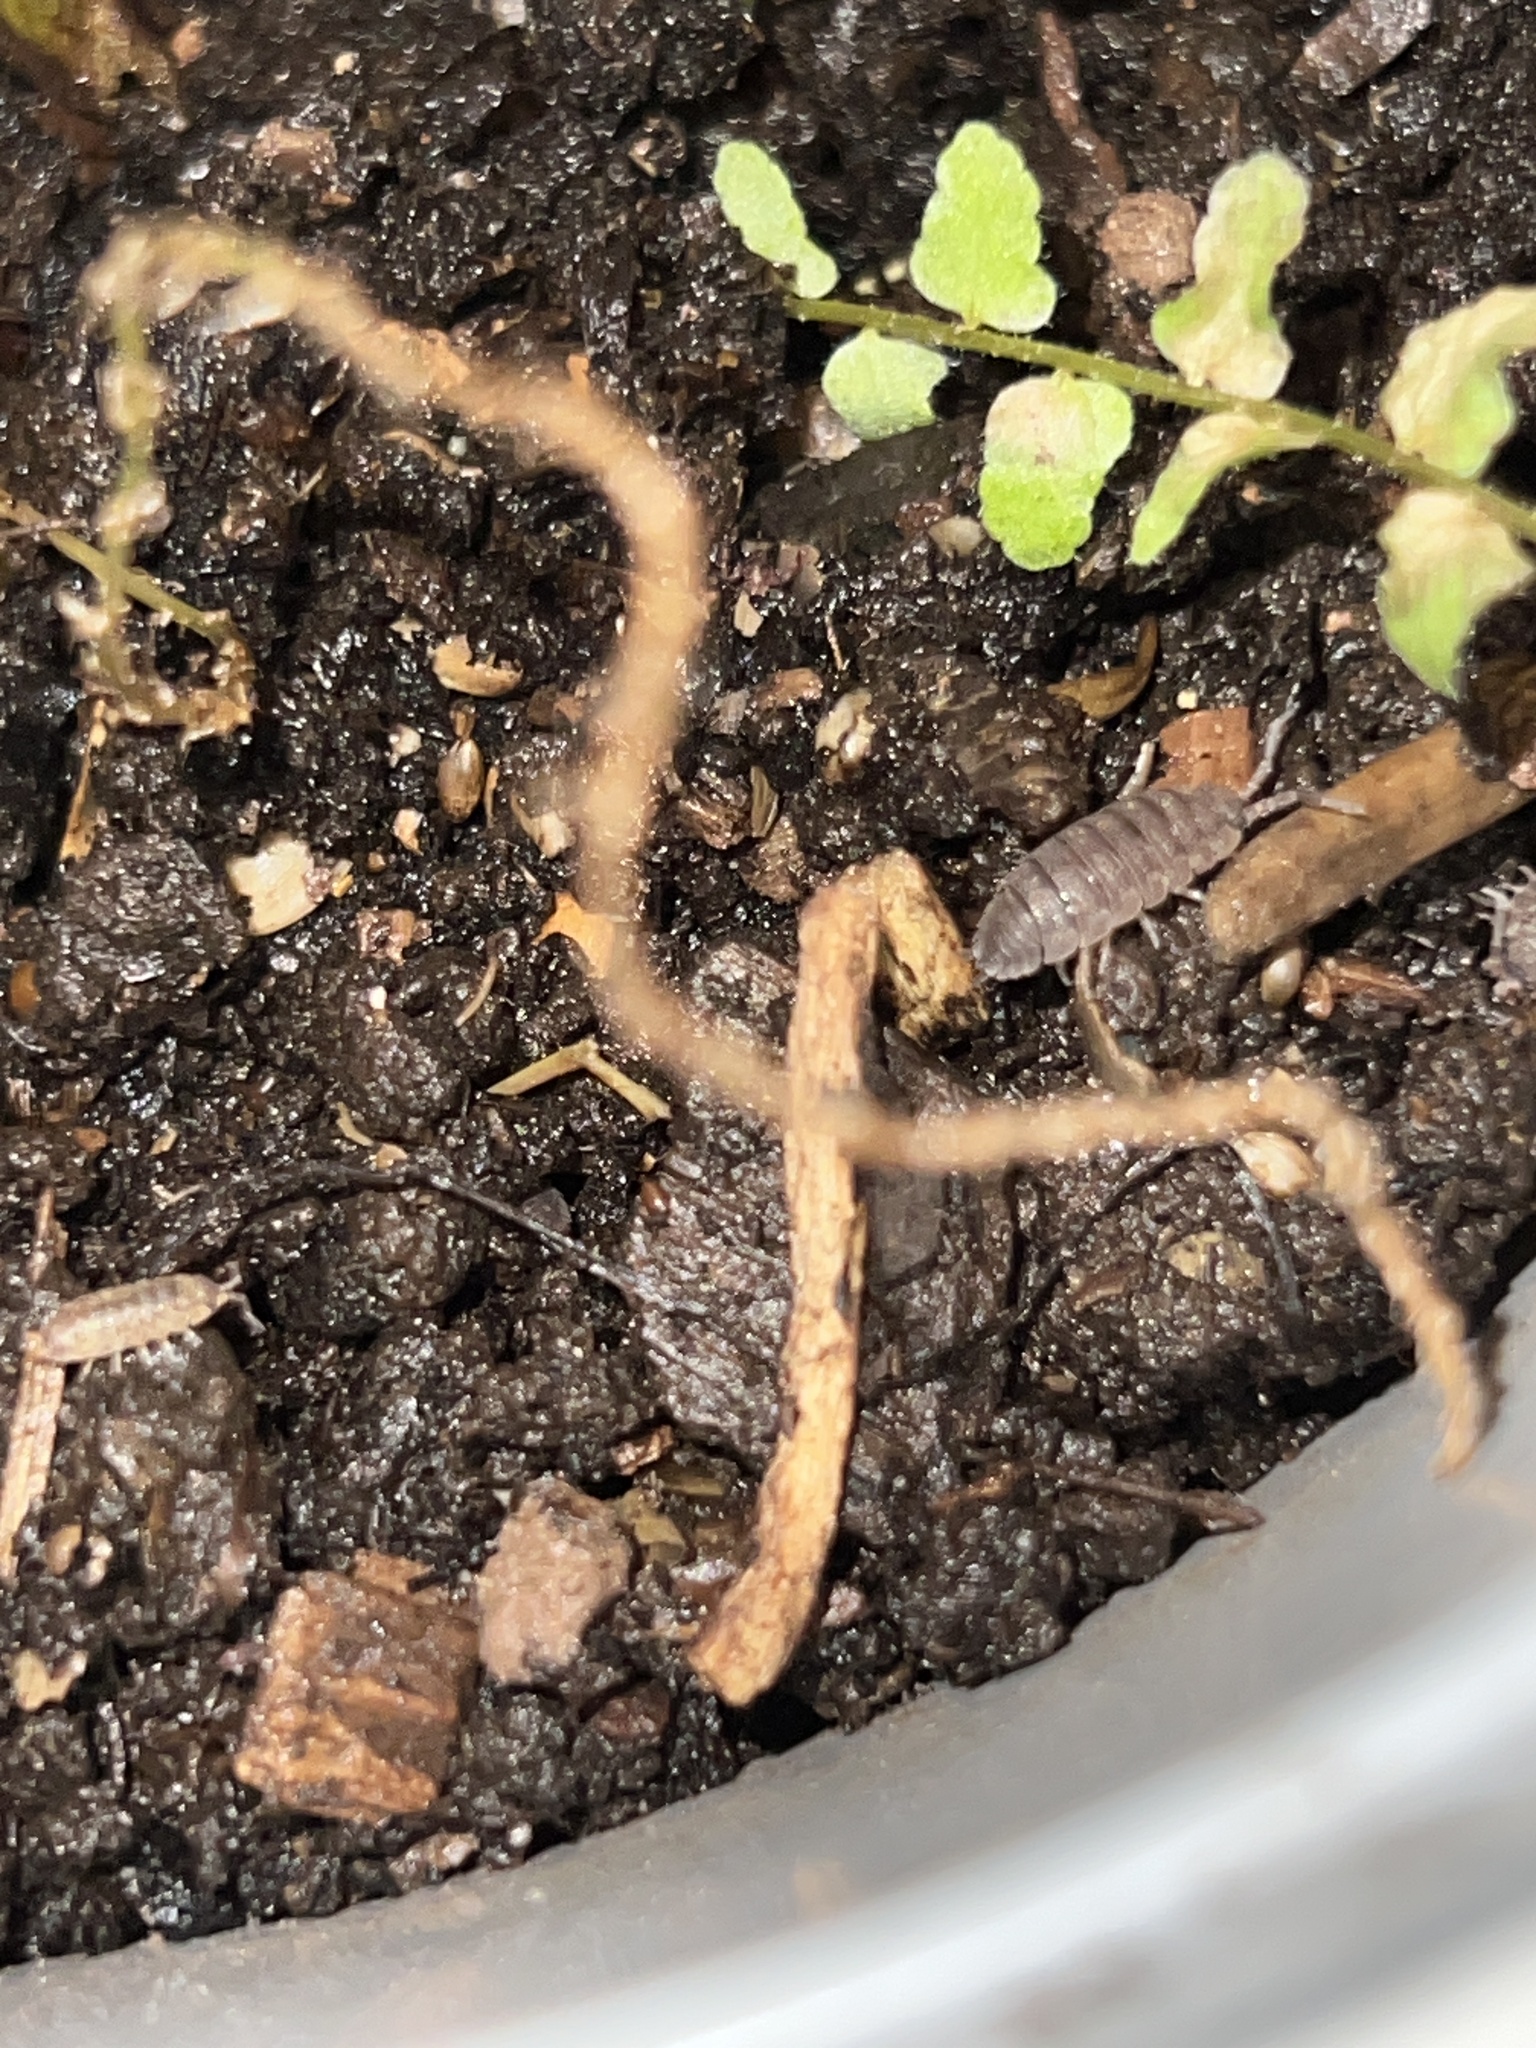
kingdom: Animalia
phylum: Arthropoda
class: Malacostraca
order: Isopoda
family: Porcellionidae
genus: Porcellio
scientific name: Porcellio scaber
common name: Common rough woodlouse
